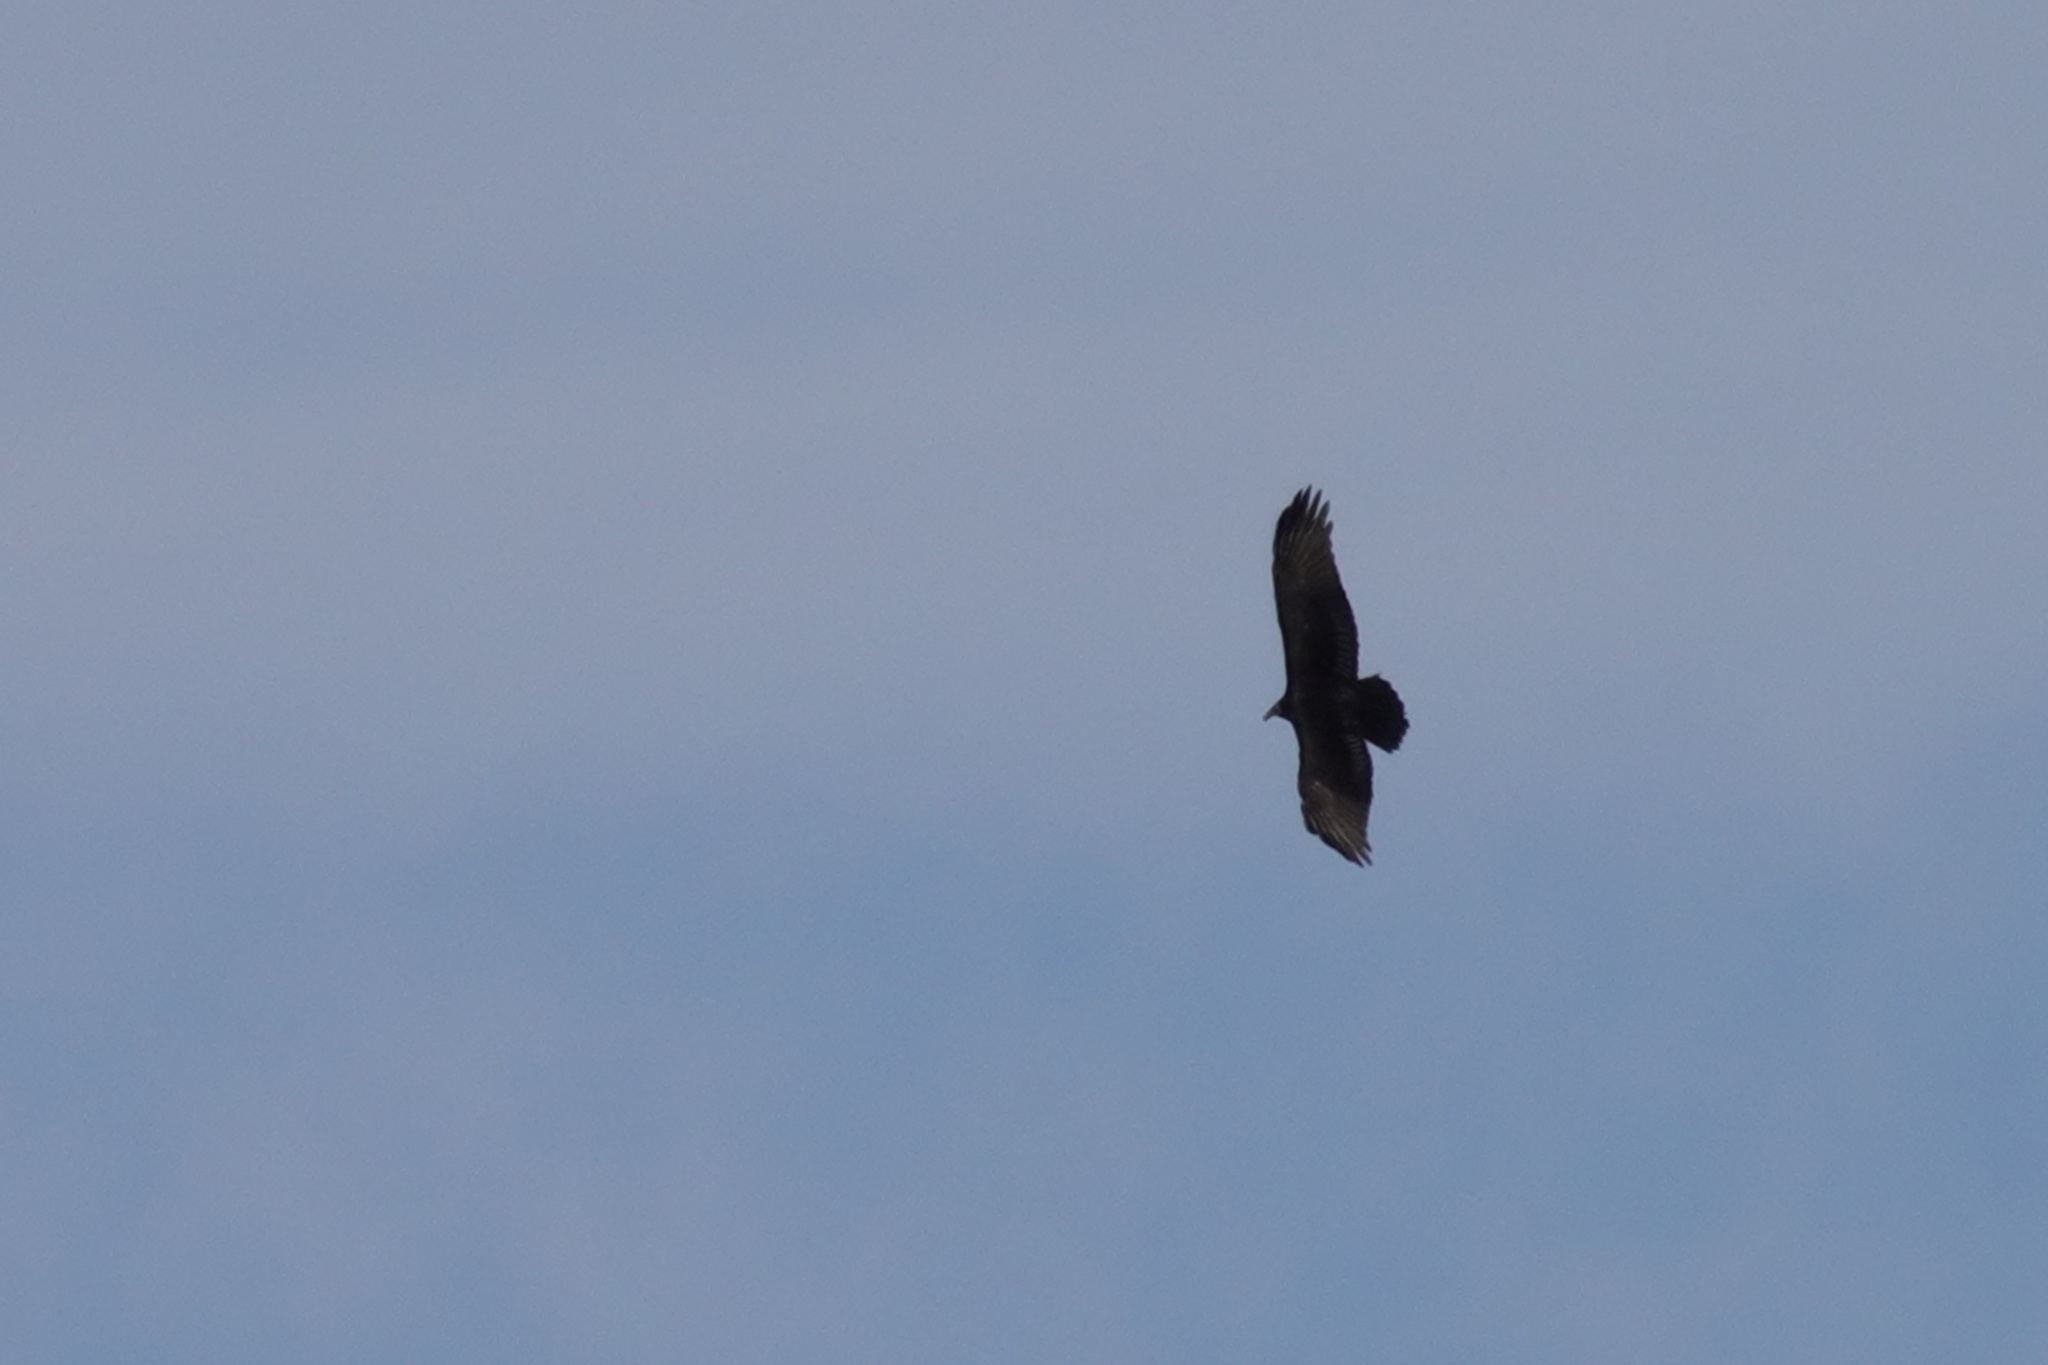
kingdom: Animalia
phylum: Chordata
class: Aves
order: Accipitriformes
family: Cathartidae
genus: Cathartes
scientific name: Cathartes aura
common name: Turkey vulture
